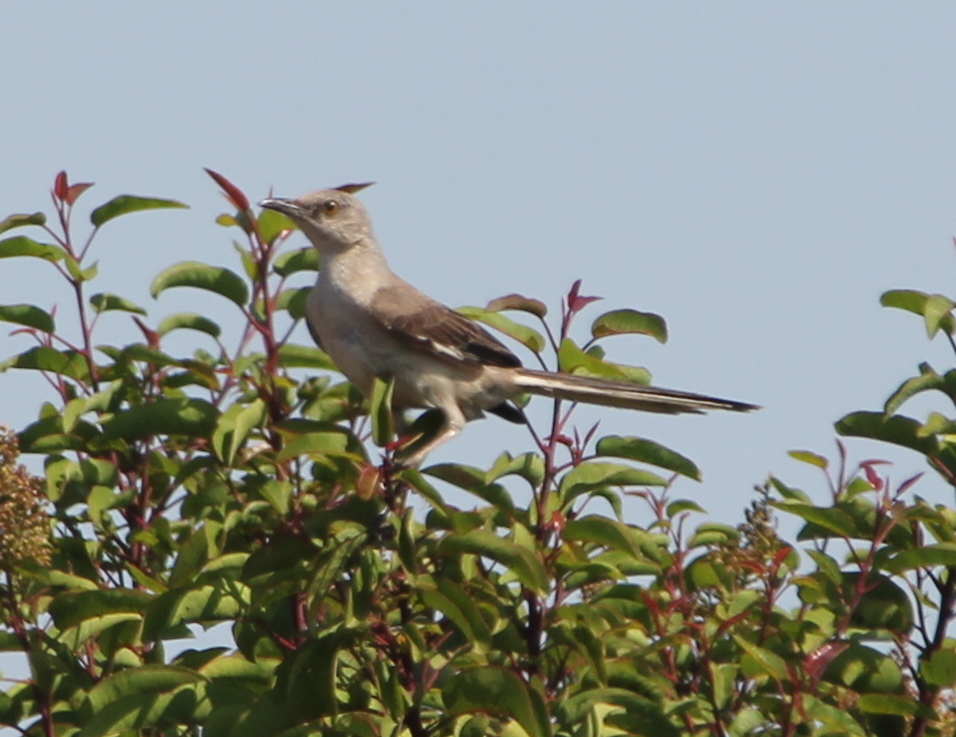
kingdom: Animalia
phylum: Chordata
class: Aves
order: Passeriformes
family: Mimidae
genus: Mimus
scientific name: Mimus polyglottos
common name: Northern mockingbird
